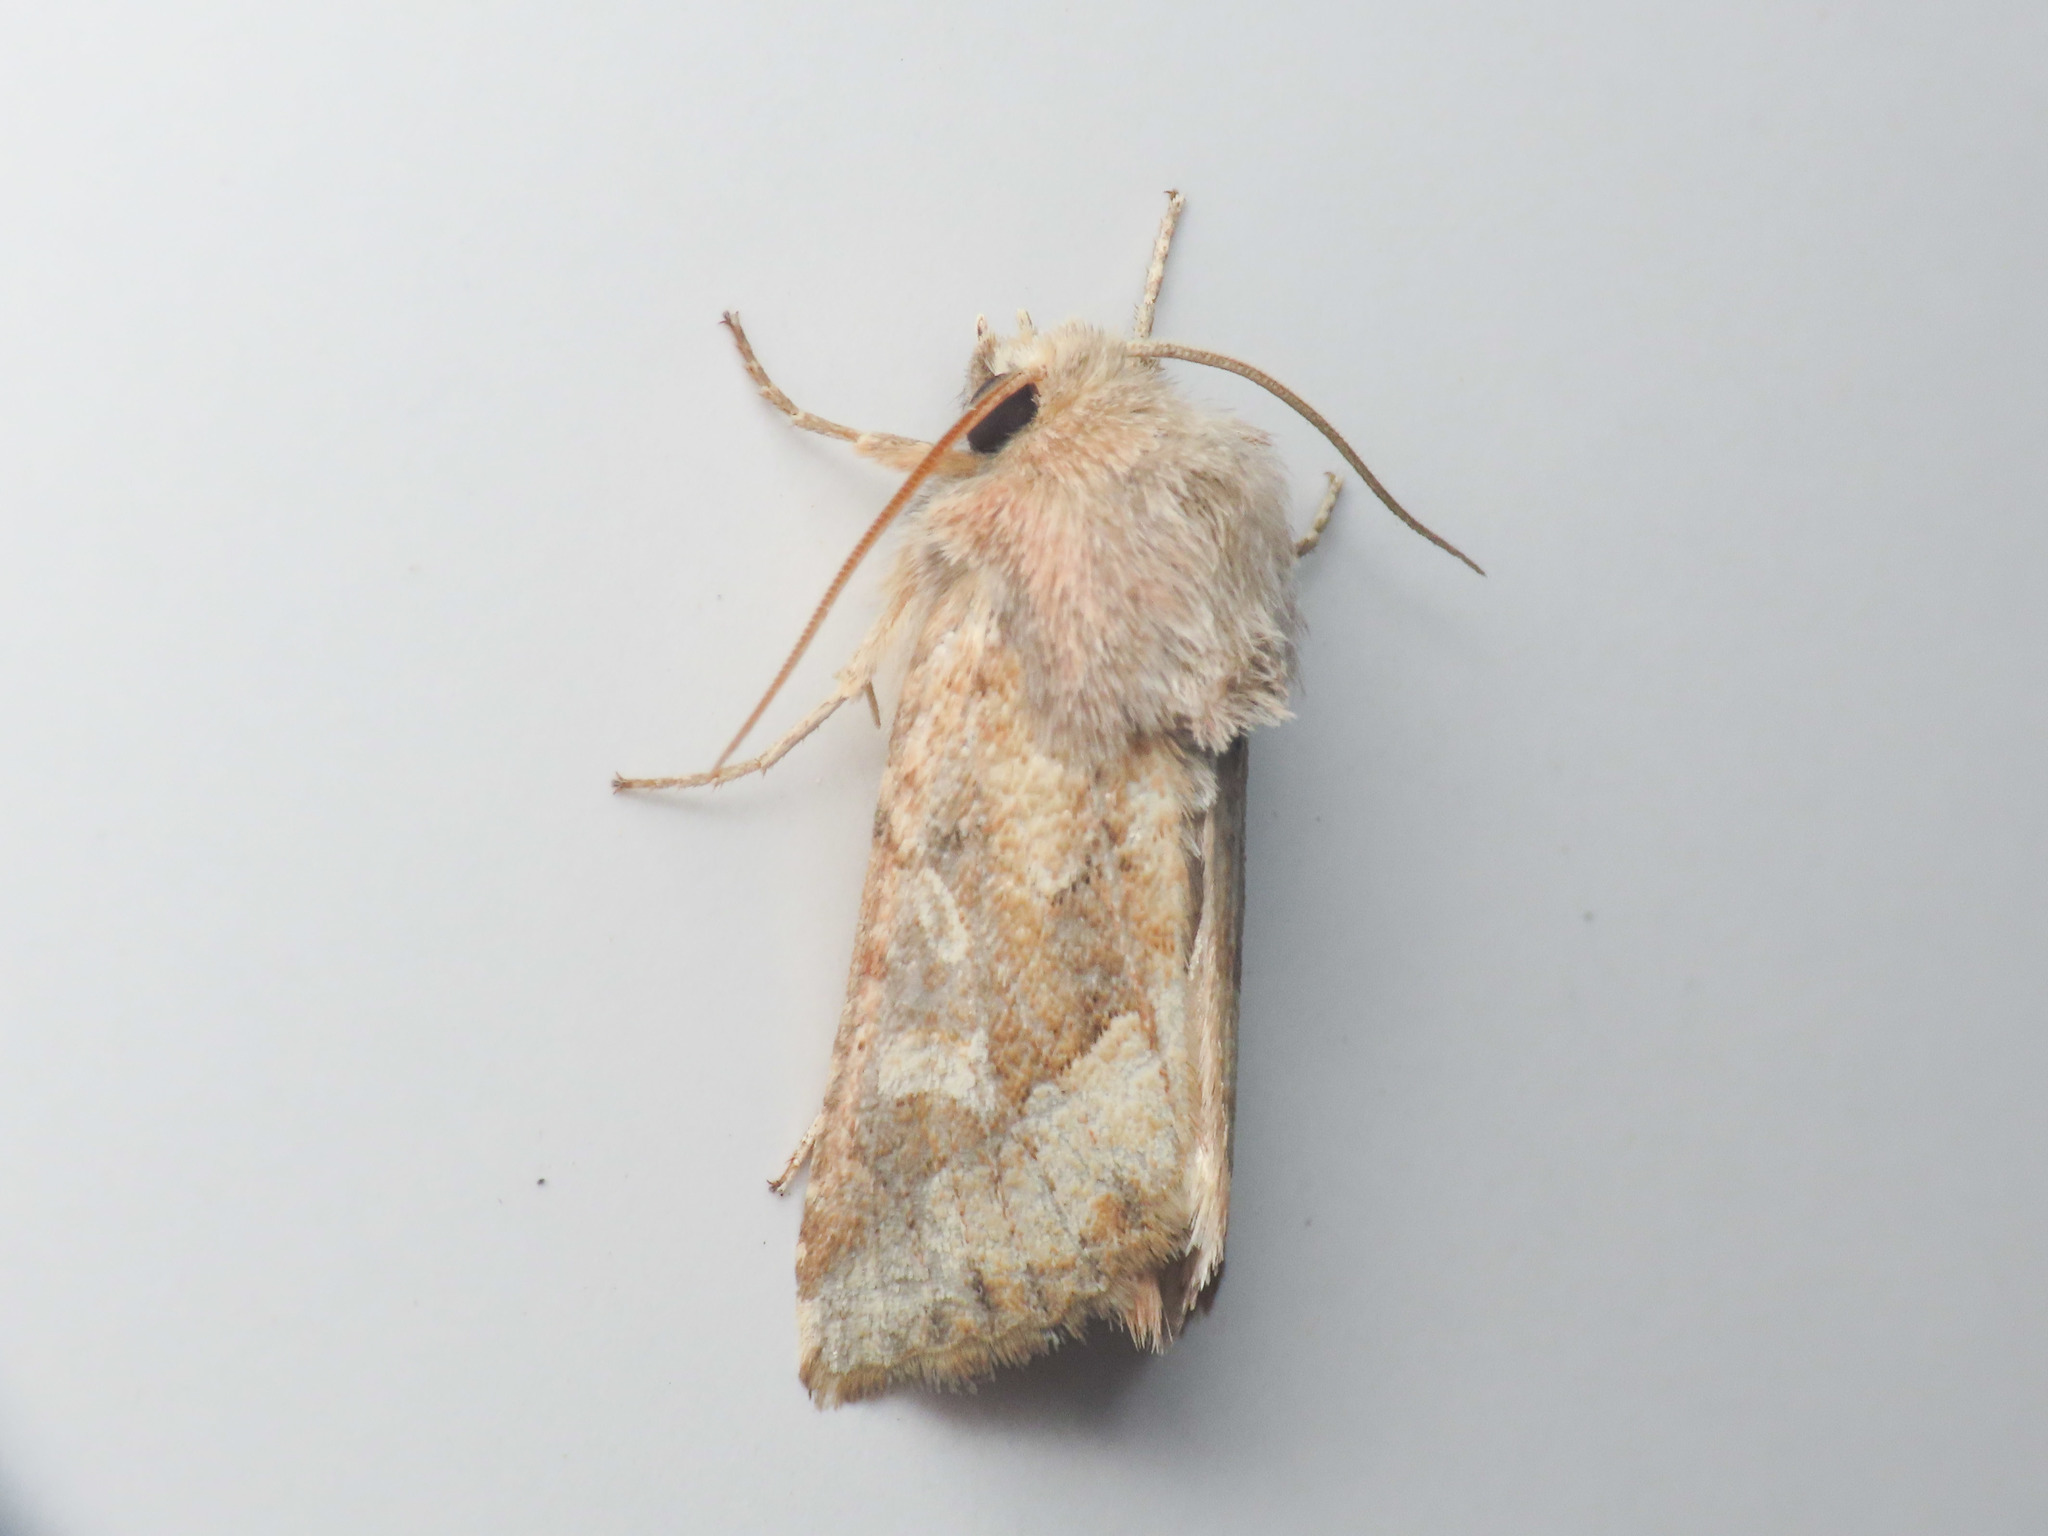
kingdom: Animalia
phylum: Arthropoda
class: Insecta
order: Lepidoptera
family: Noctuidae
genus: Luperina
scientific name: Luperina dumerilii
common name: Dumeril's rustic
